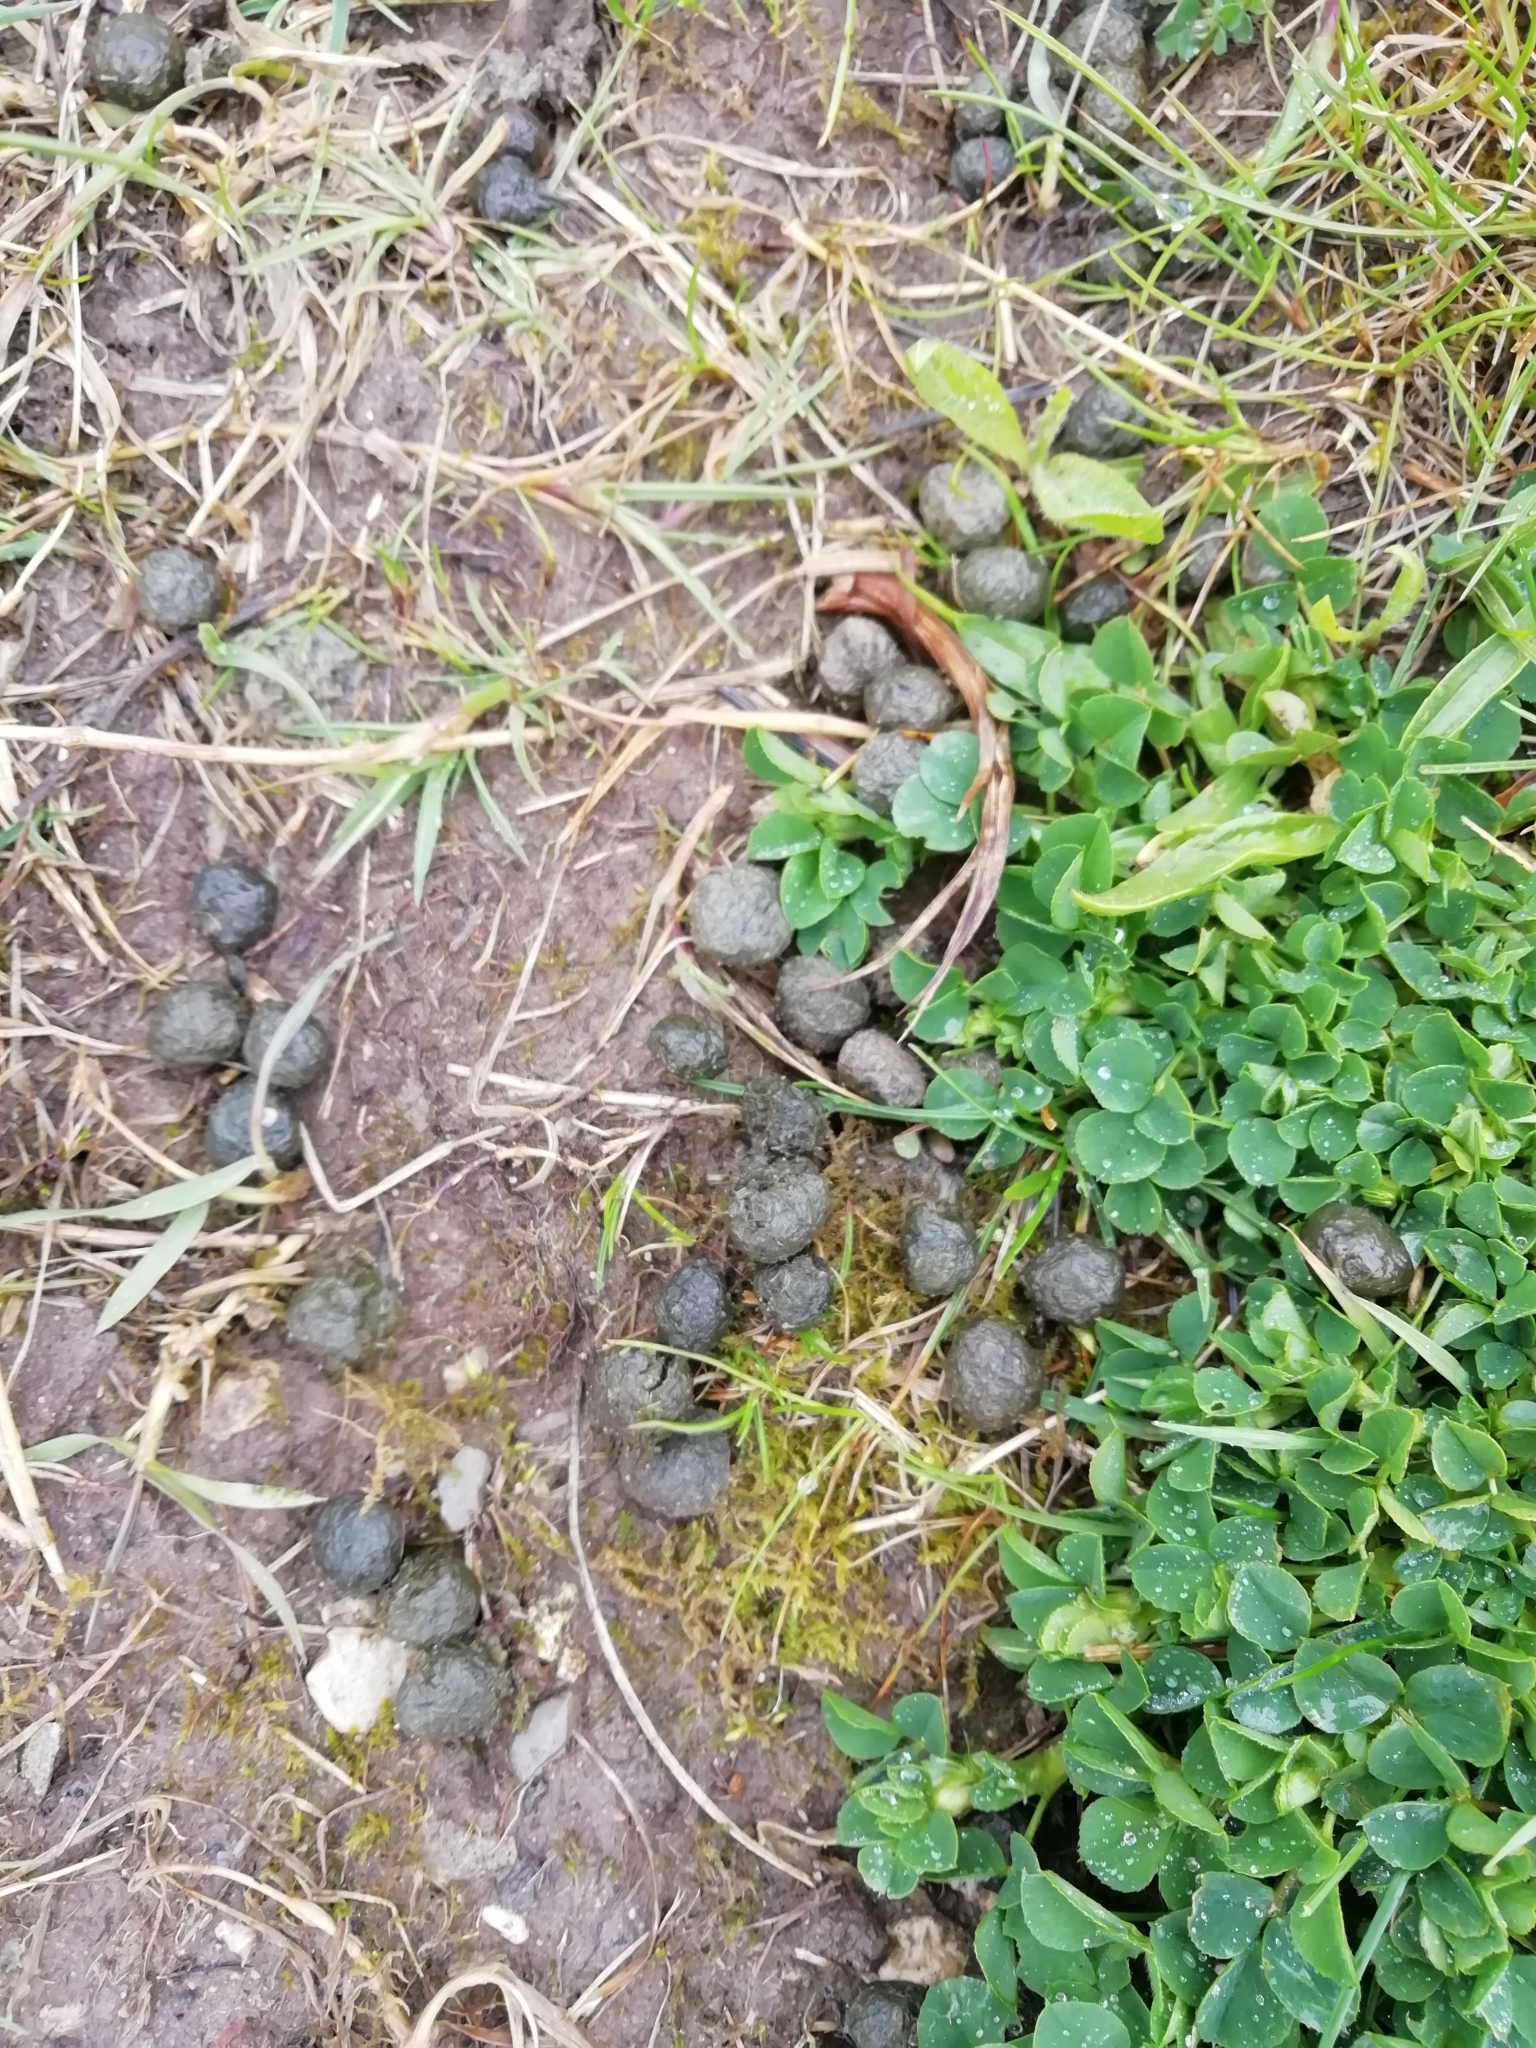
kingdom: Animalia
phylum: Chordata
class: Mammalia
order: Lagomorpha
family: Leporidae
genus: Oryctolagus
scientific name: Oryctolagus cuniculus
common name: European rabbit
